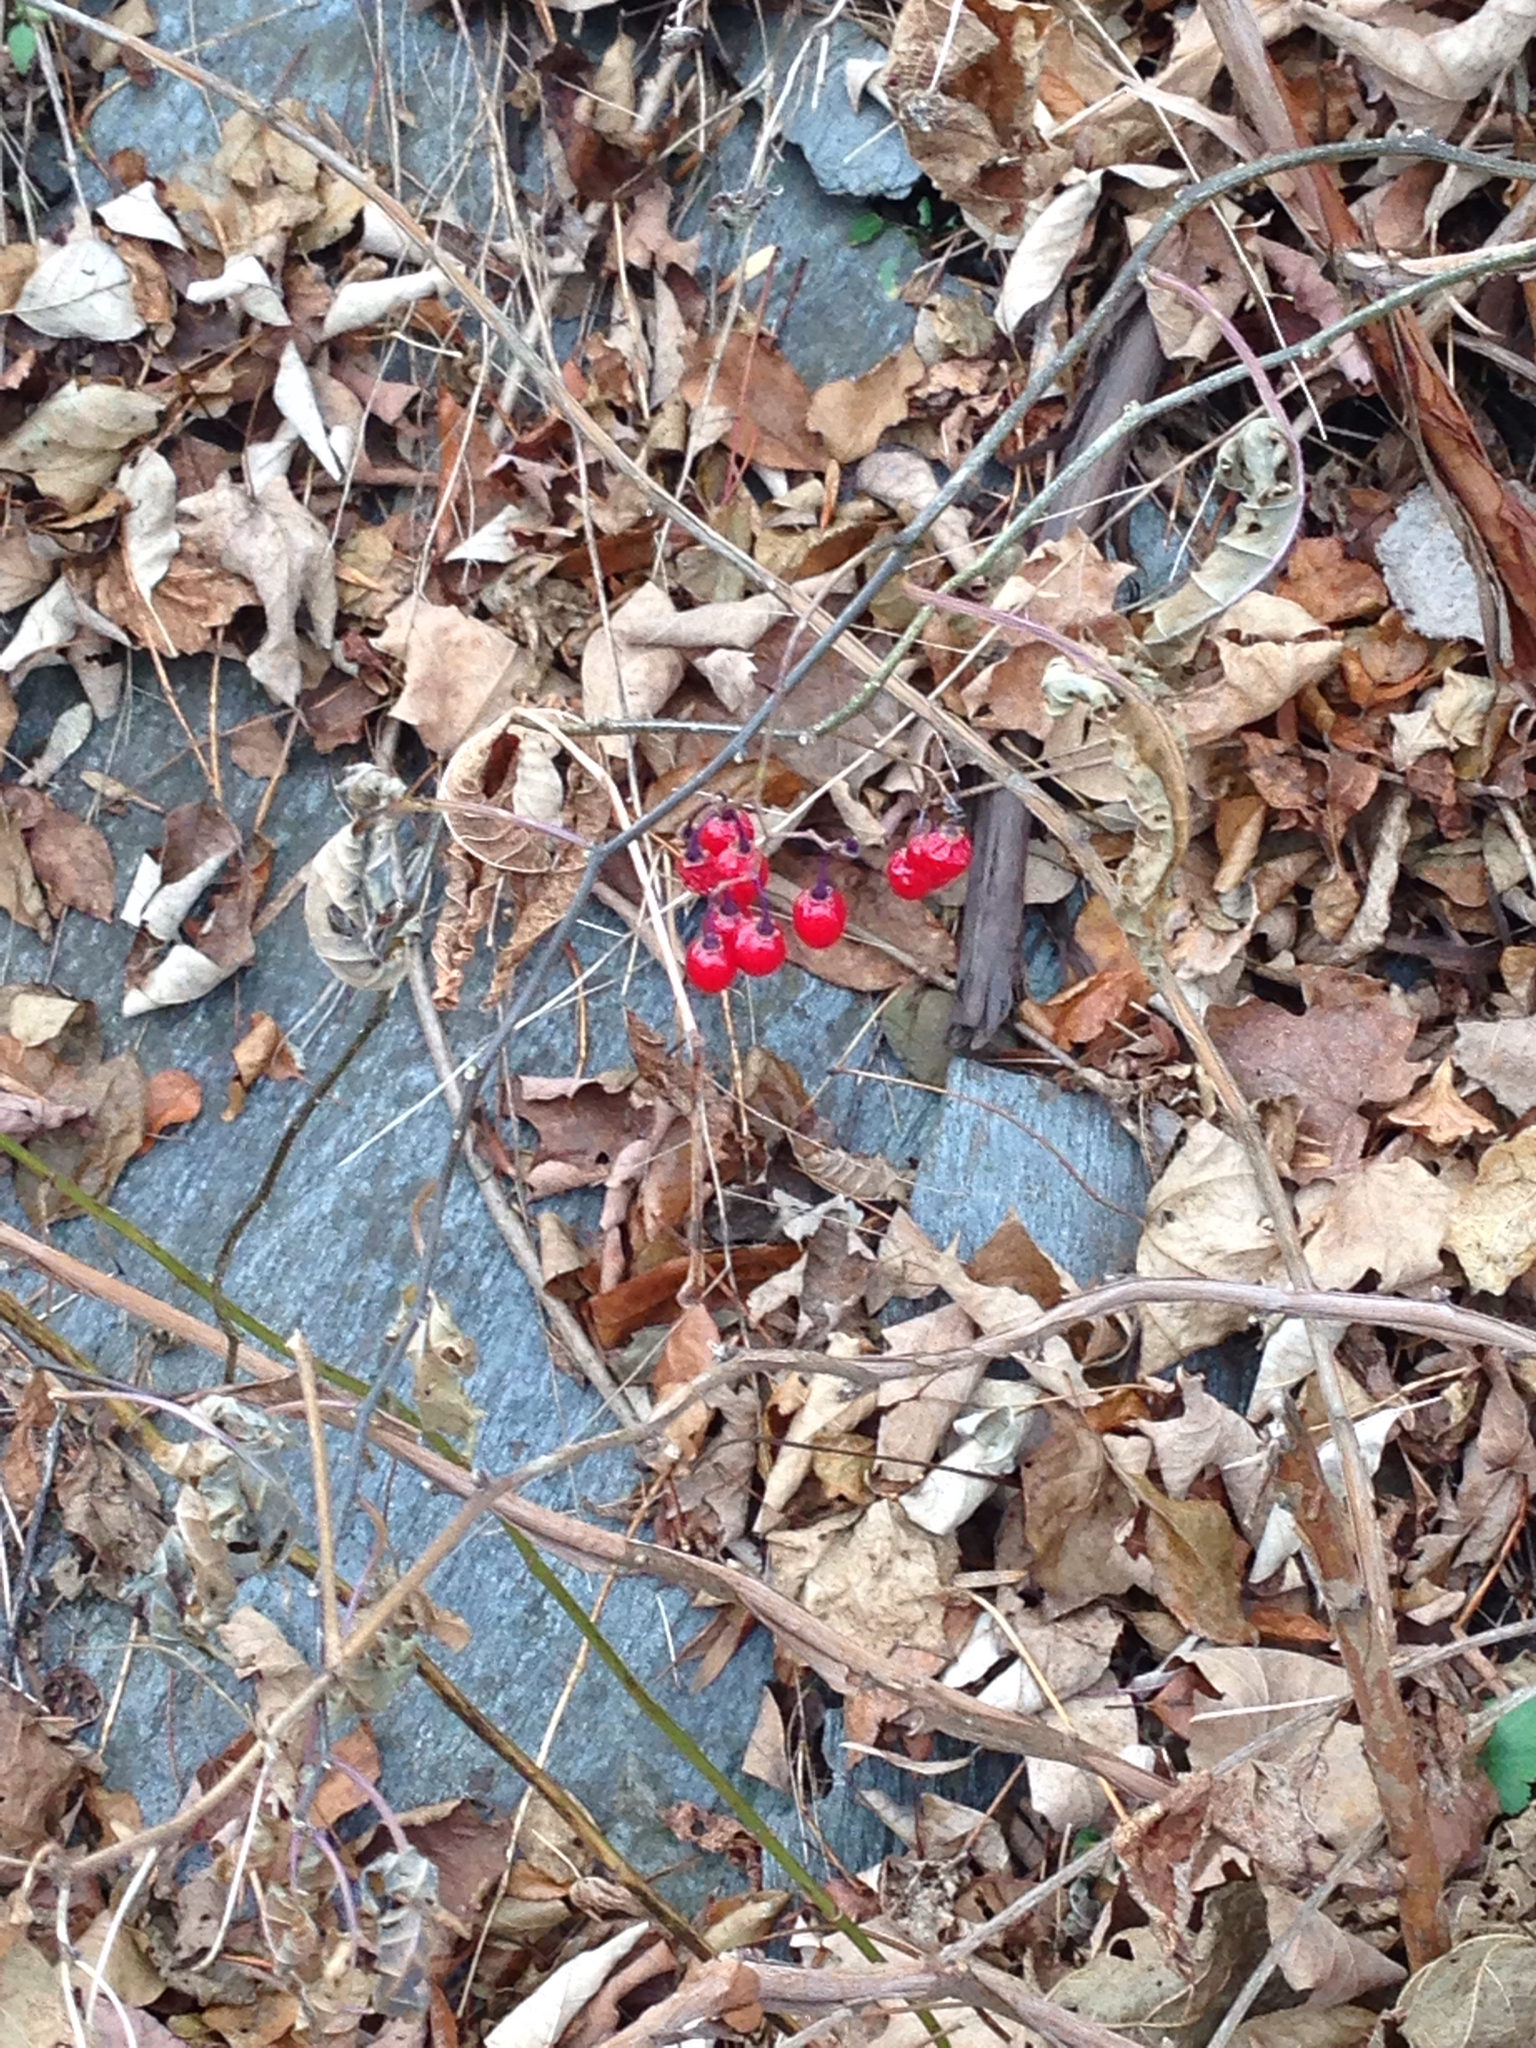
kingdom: Plantae
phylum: Tracheophyta
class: Magnoliopsida
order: Solanales
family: Solanaceae
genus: Solanum
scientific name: Solanum dulcamara
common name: Climbing nightshade
